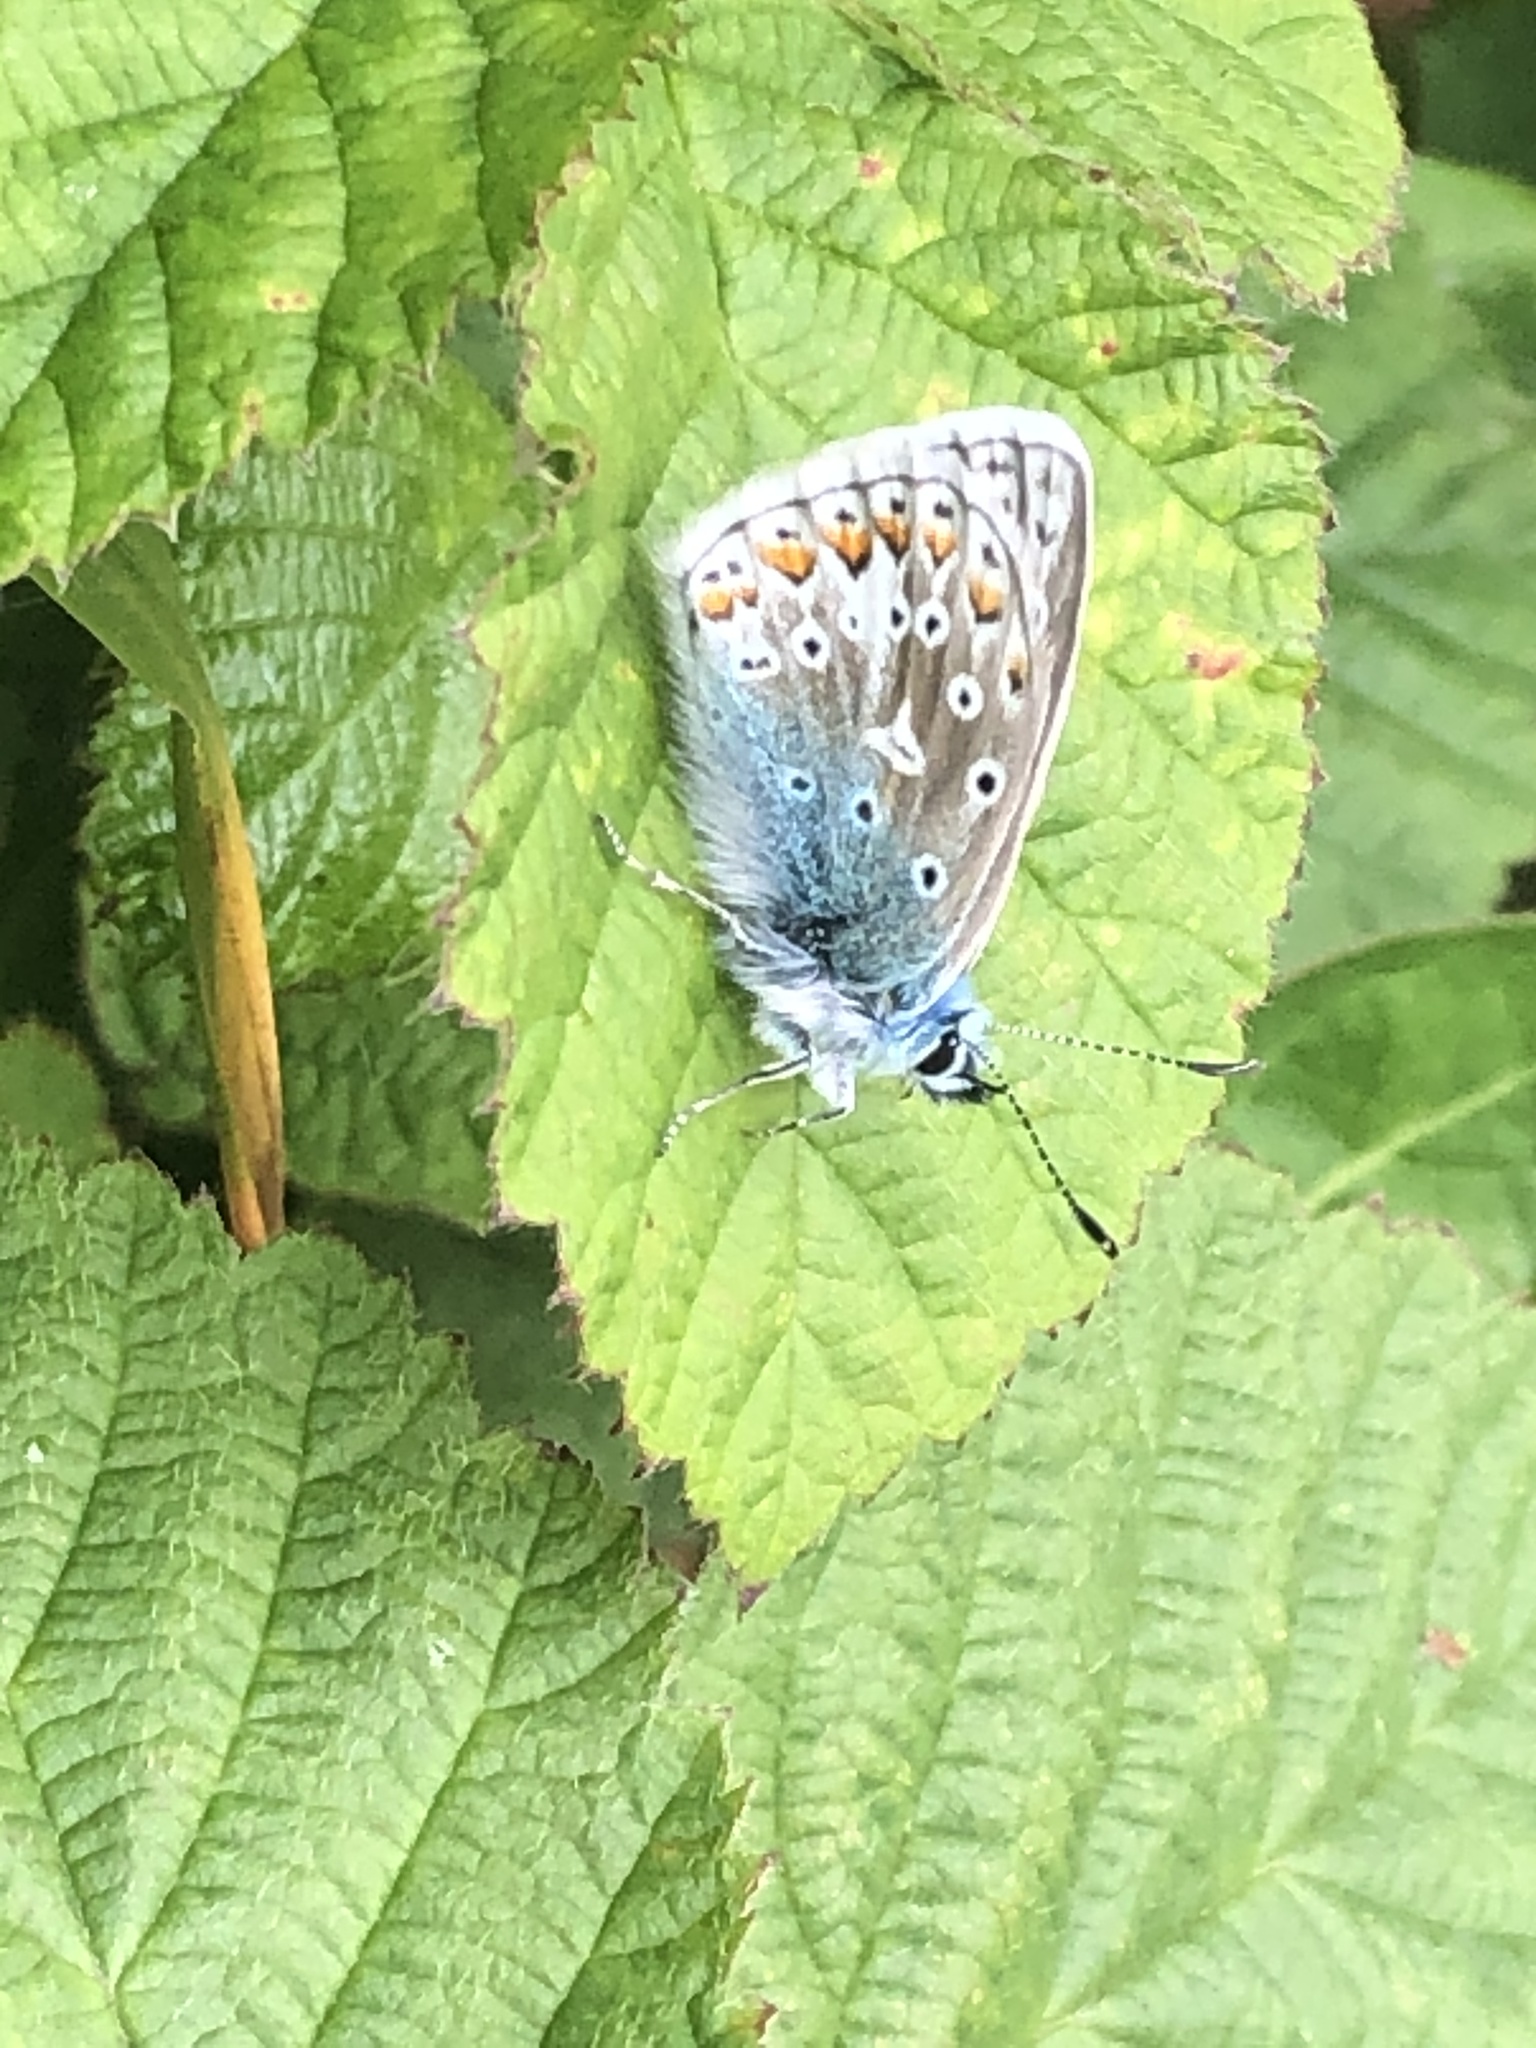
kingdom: Animalia
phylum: Arthropoda
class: Insecta
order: Lepidoptera
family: Lycaenidae
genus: Polyommatus
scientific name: Polyommatus icarus
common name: Common blue
